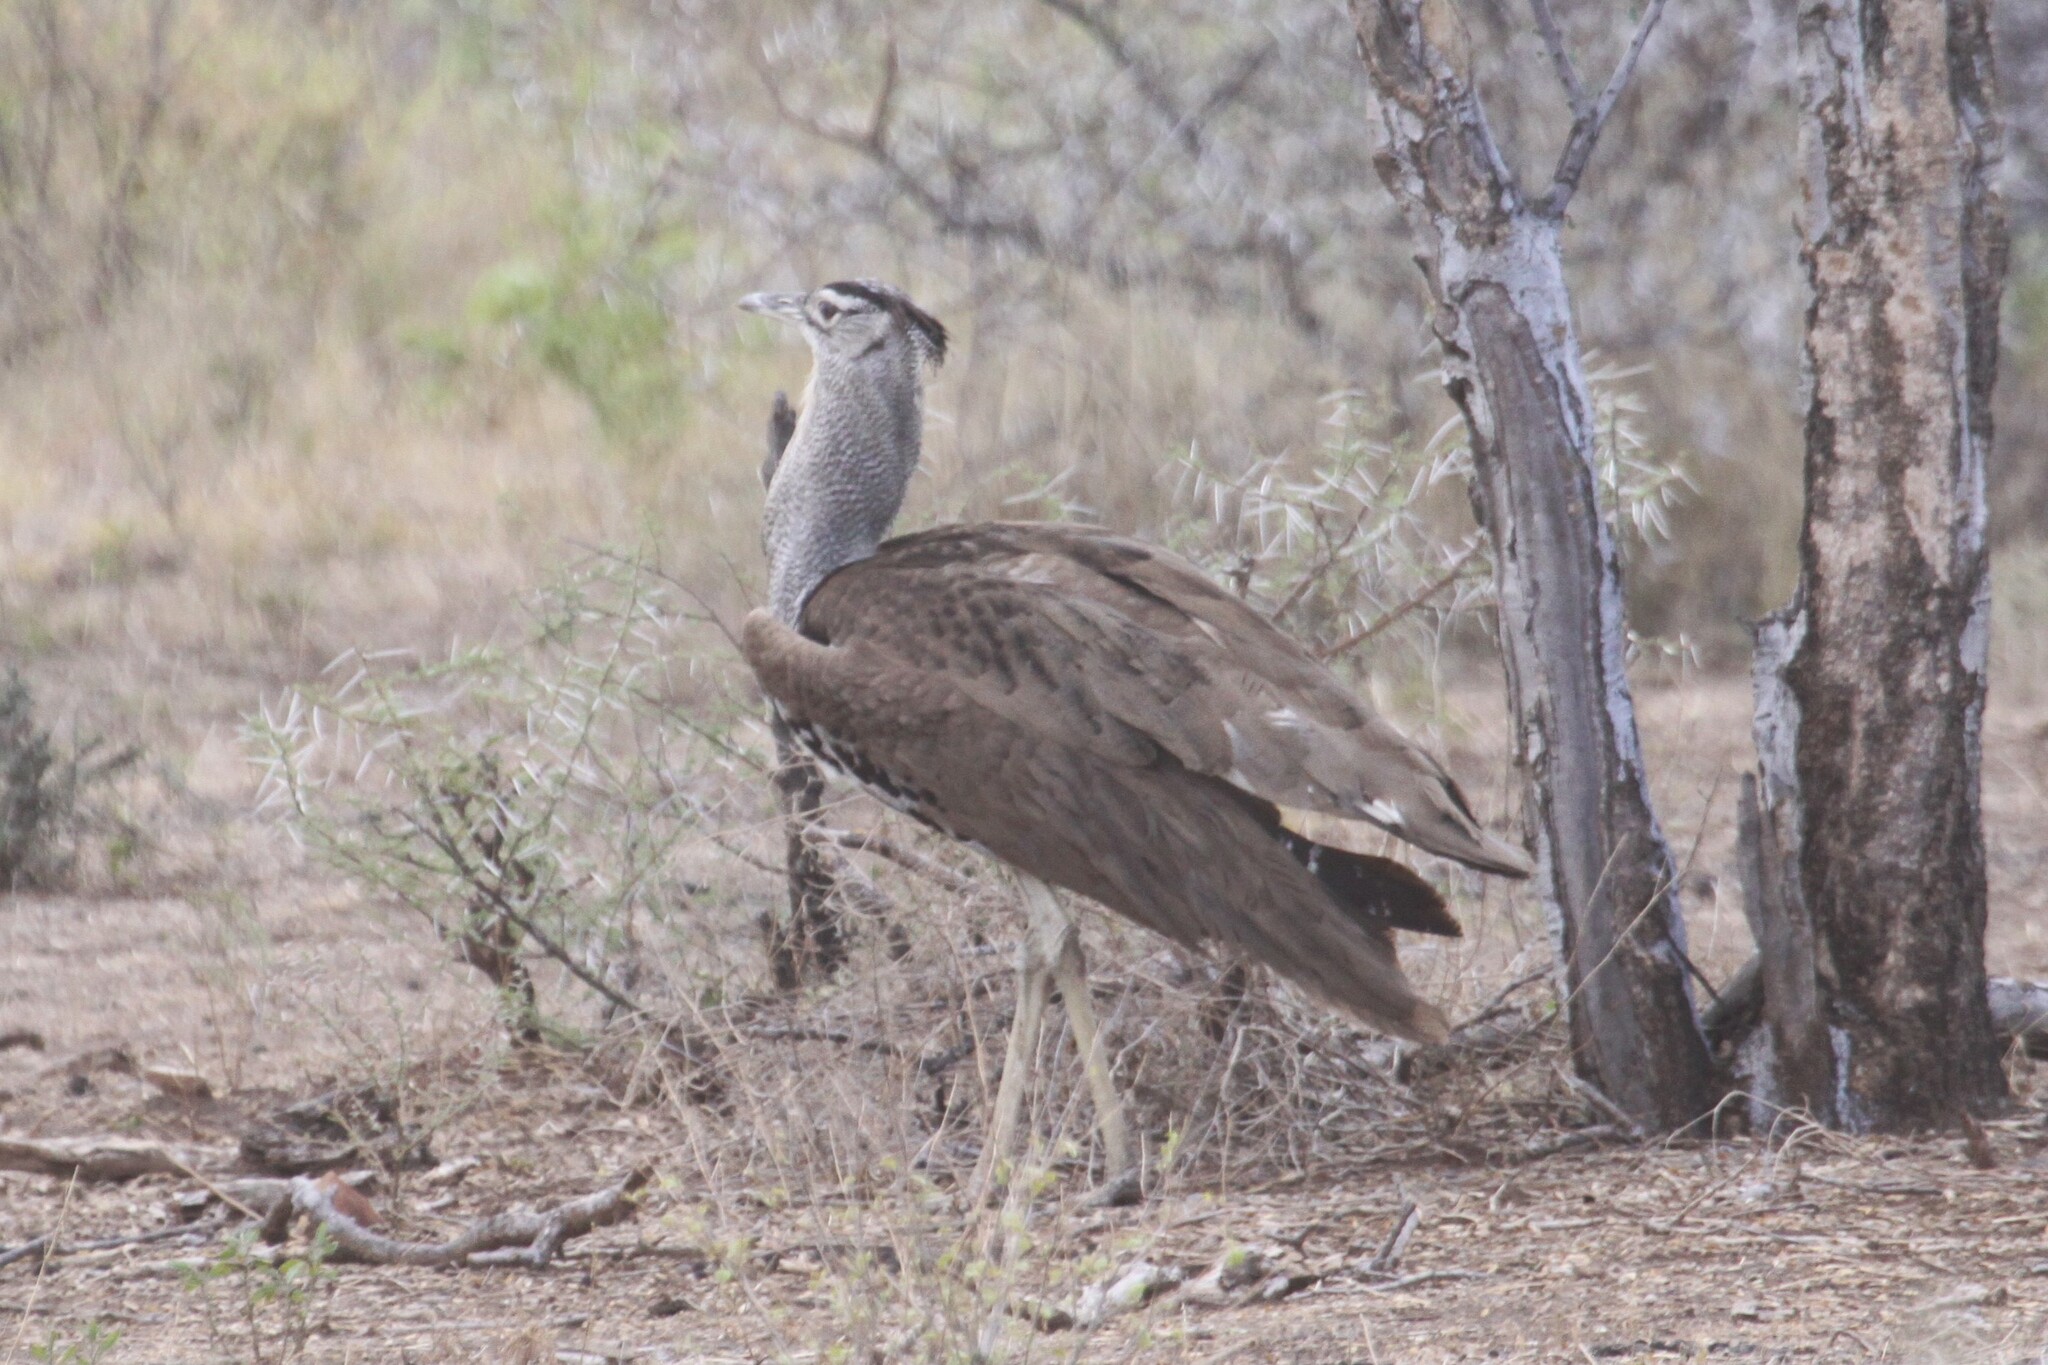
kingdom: Animalia
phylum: Chordata
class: Aves
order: Otidiformes
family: Otididae
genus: Ardeotis
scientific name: Ardeotis kori
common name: Kori bustard
